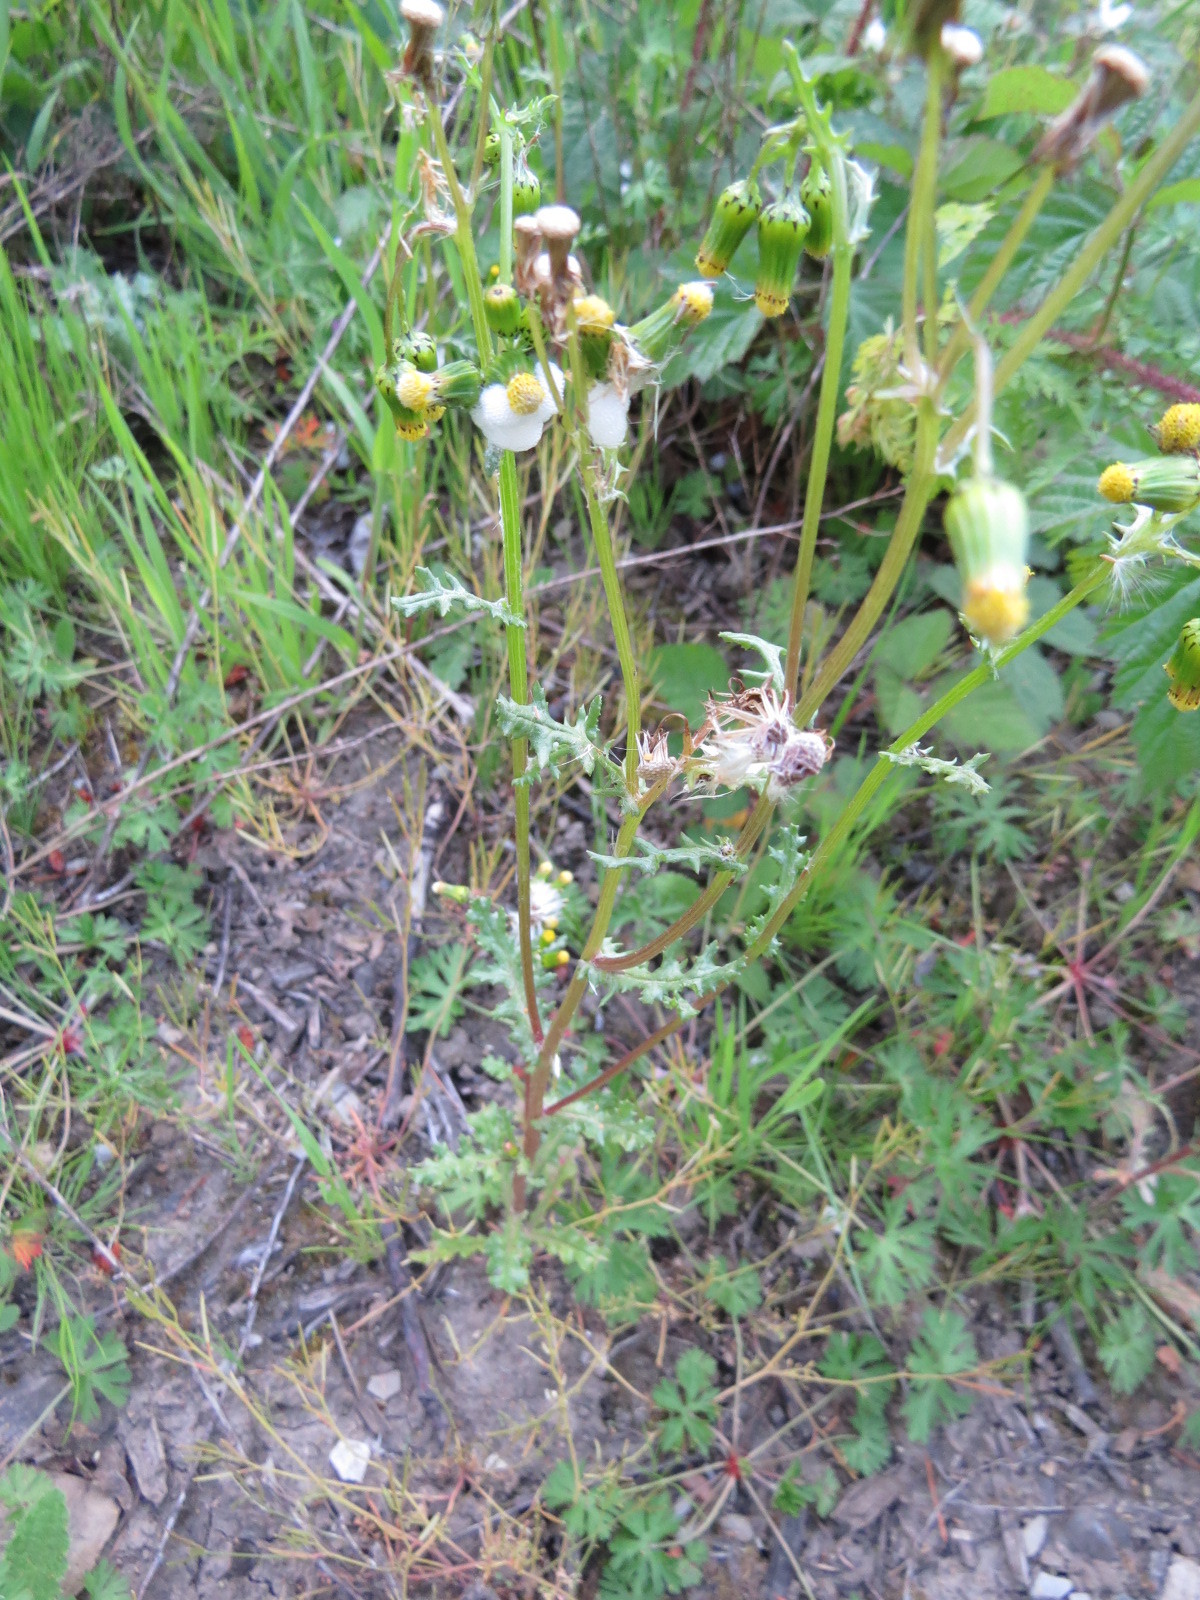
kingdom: Plantae
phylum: Tracheophyta
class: Magnoliopsida
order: Asterales
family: Asteraceae
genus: Senecio
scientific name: Senecio vulgaris
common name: Old-man-in-the-spring
